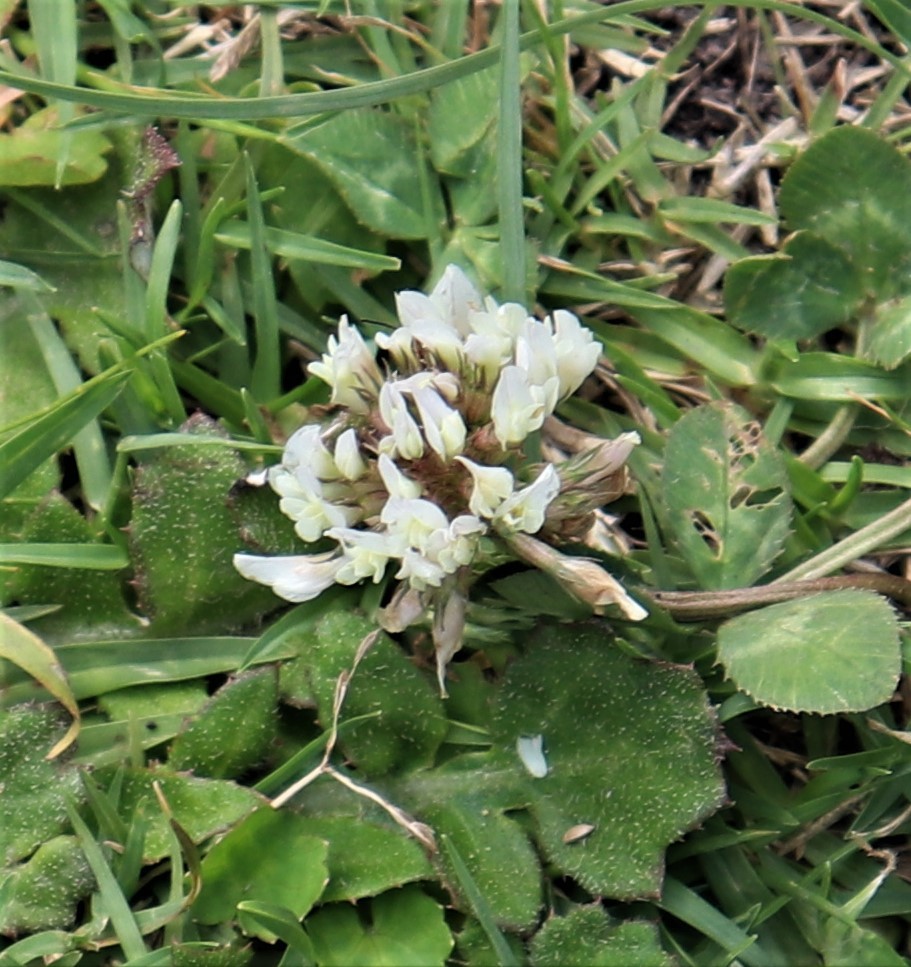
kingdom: Plantae
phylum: Tracheophyta
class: Magnoliopsida
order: Fabales
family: Fabaceae
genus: Trifolium
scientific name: Trifolium repens
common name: White clover
